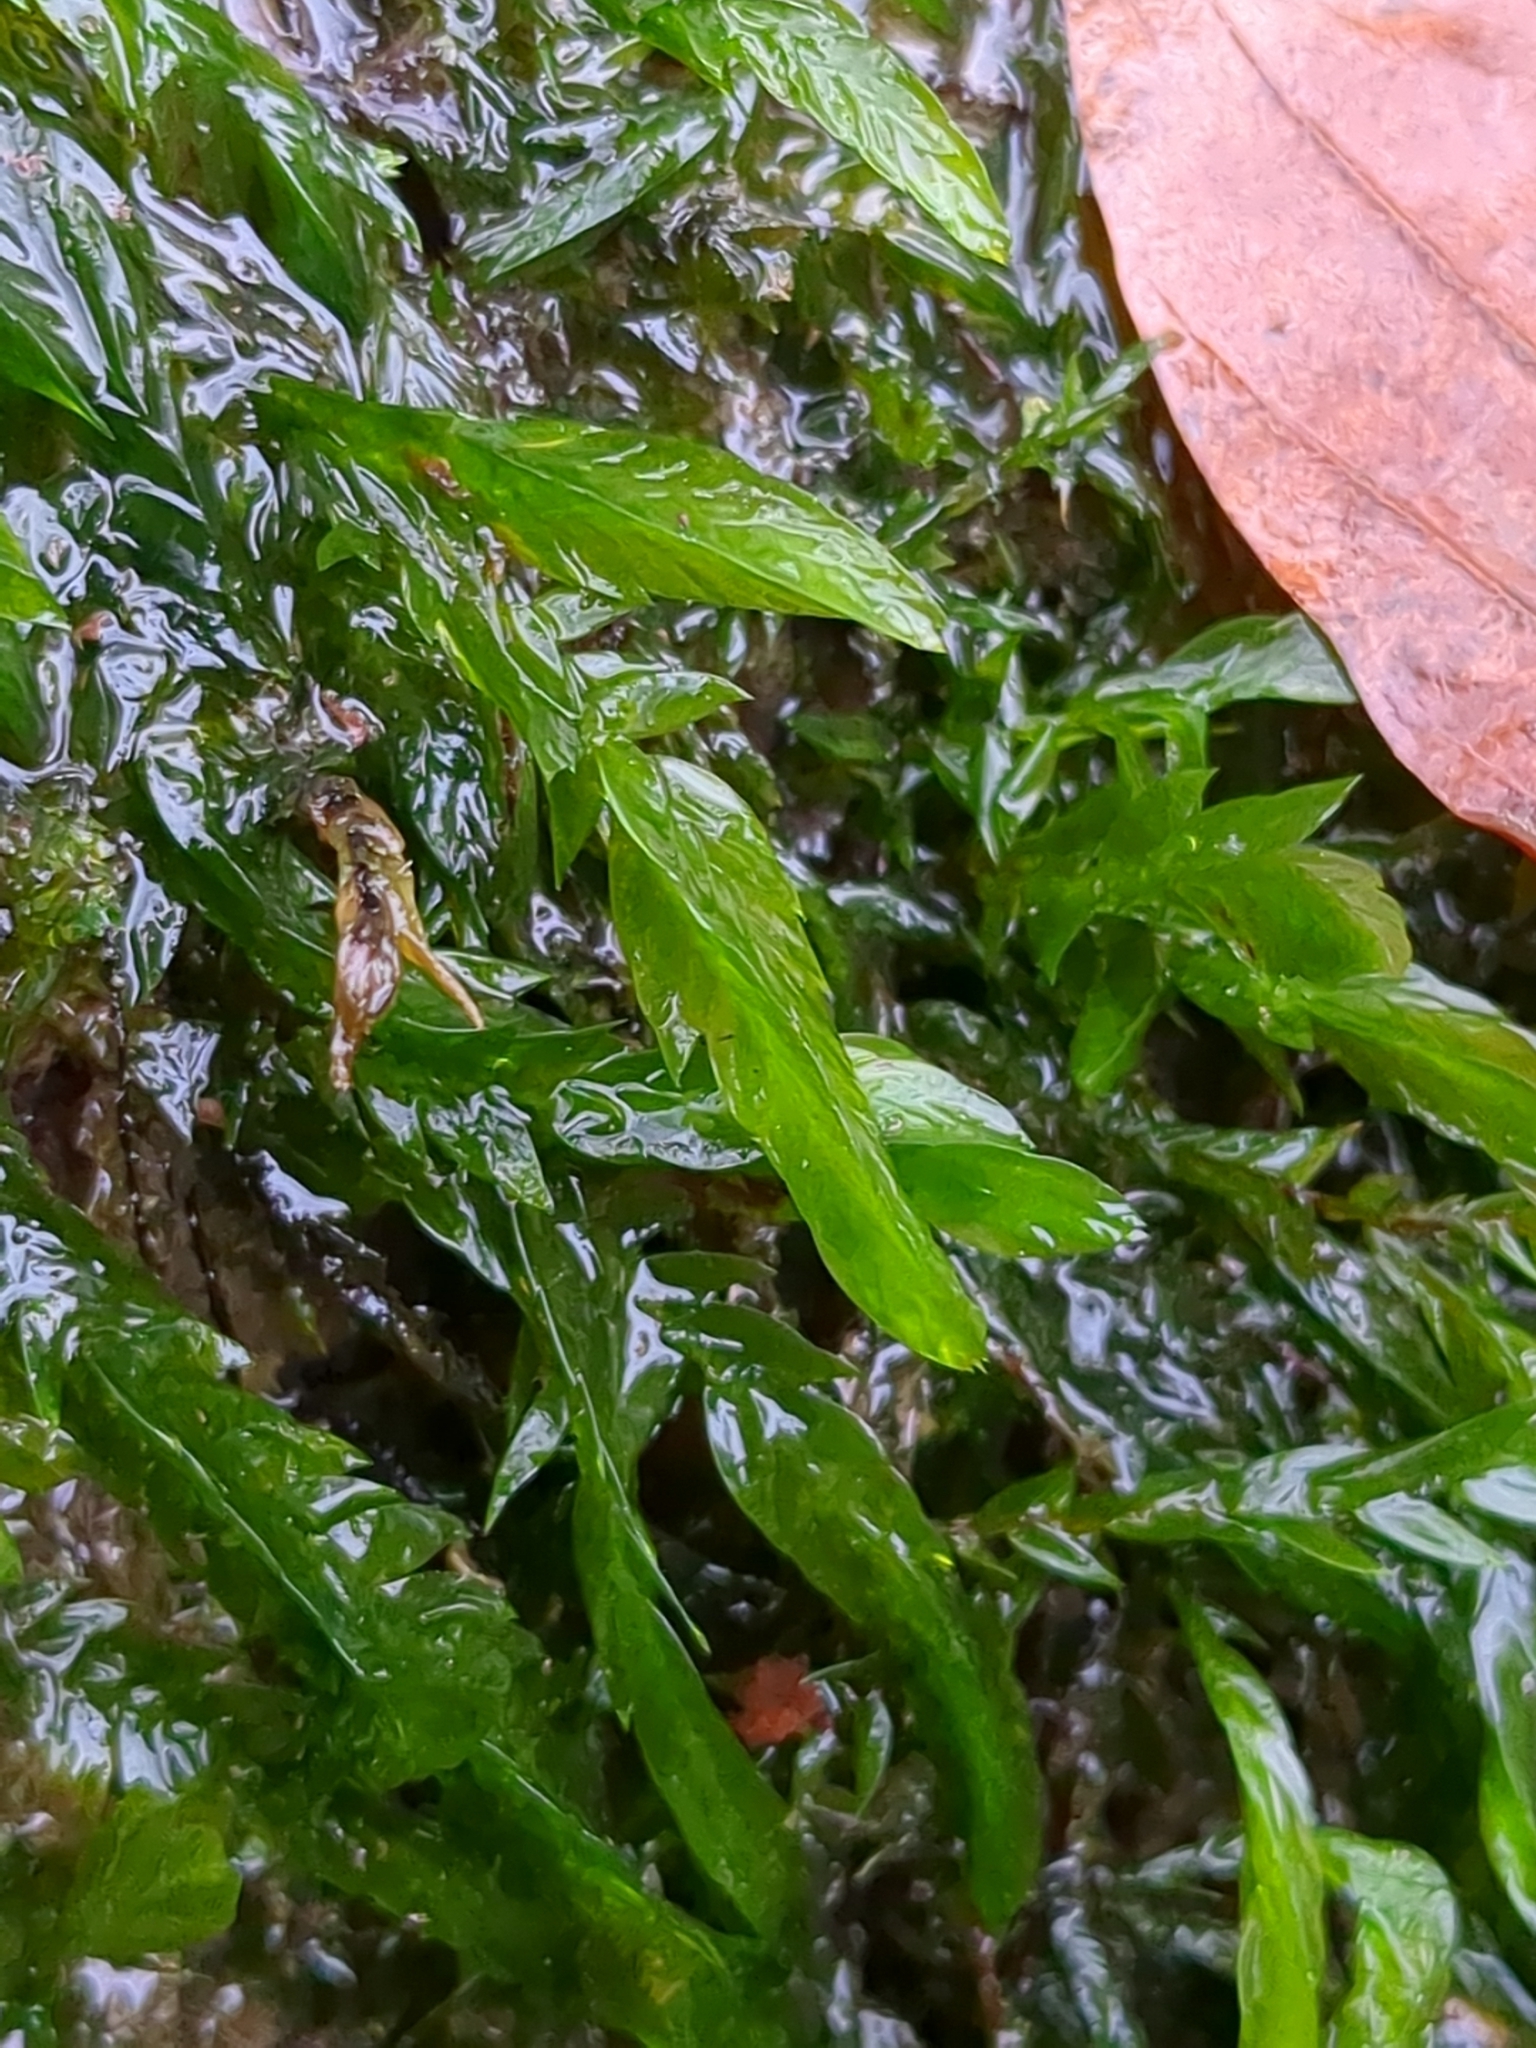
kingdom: Plantae
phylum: Bryophyta
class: Bryopsida
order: Hypnales
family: Fontinalaceae
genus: Fontinalis
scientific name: Fontinalis antipyretica
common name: Greater water-moss
